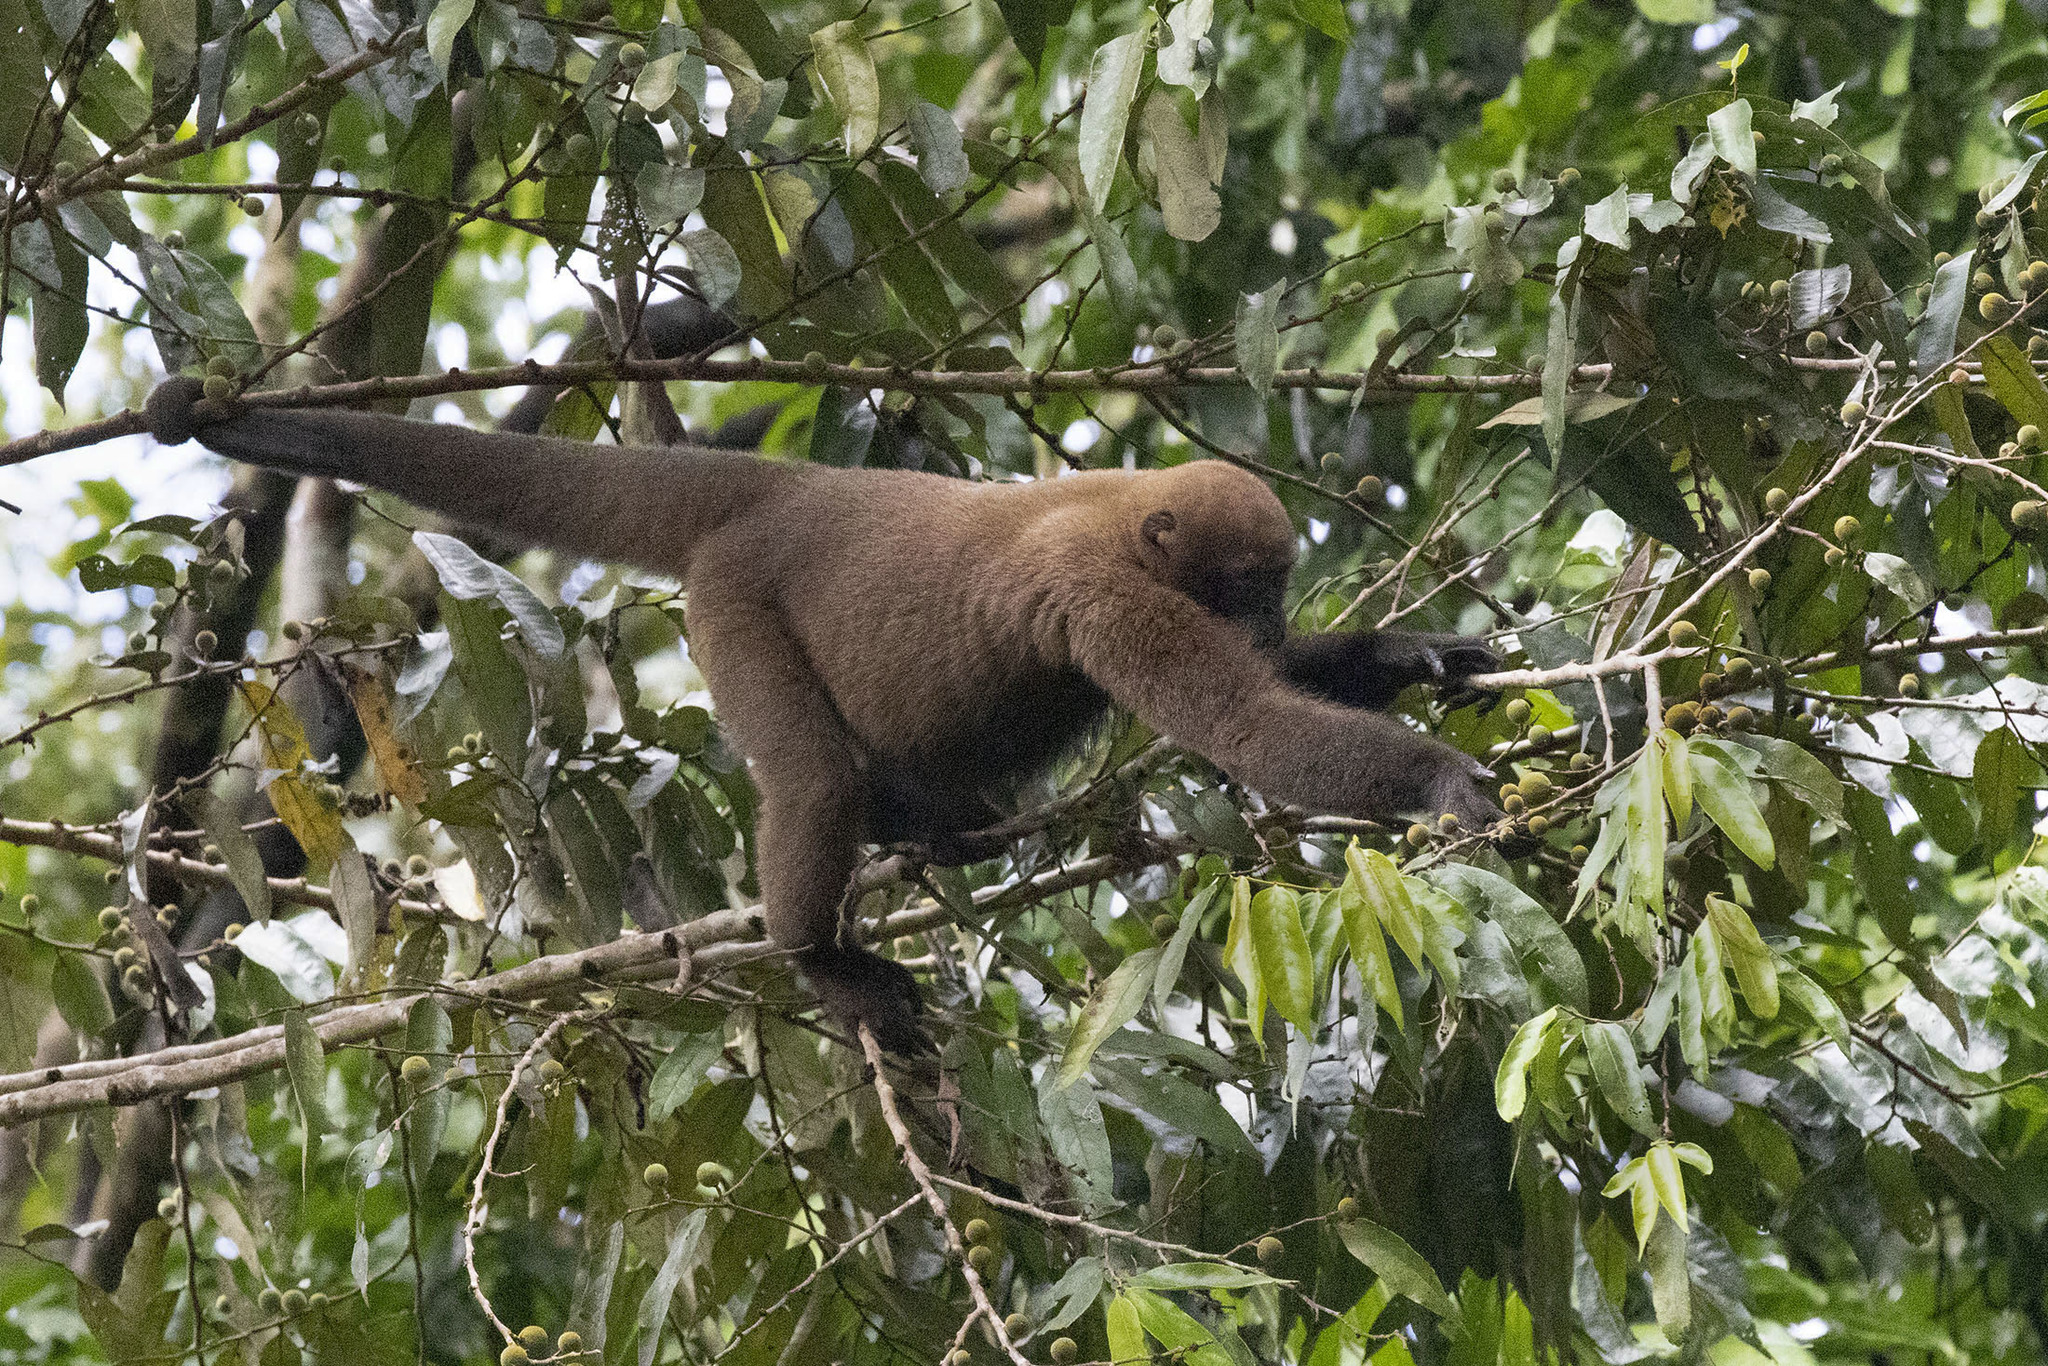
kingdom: Animalia
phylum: Chordata
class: Mammalia
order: Primates
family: Atelidae
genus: Lagothrix
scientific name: Lagothrix lagothricha
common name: Brown woolly monkey
